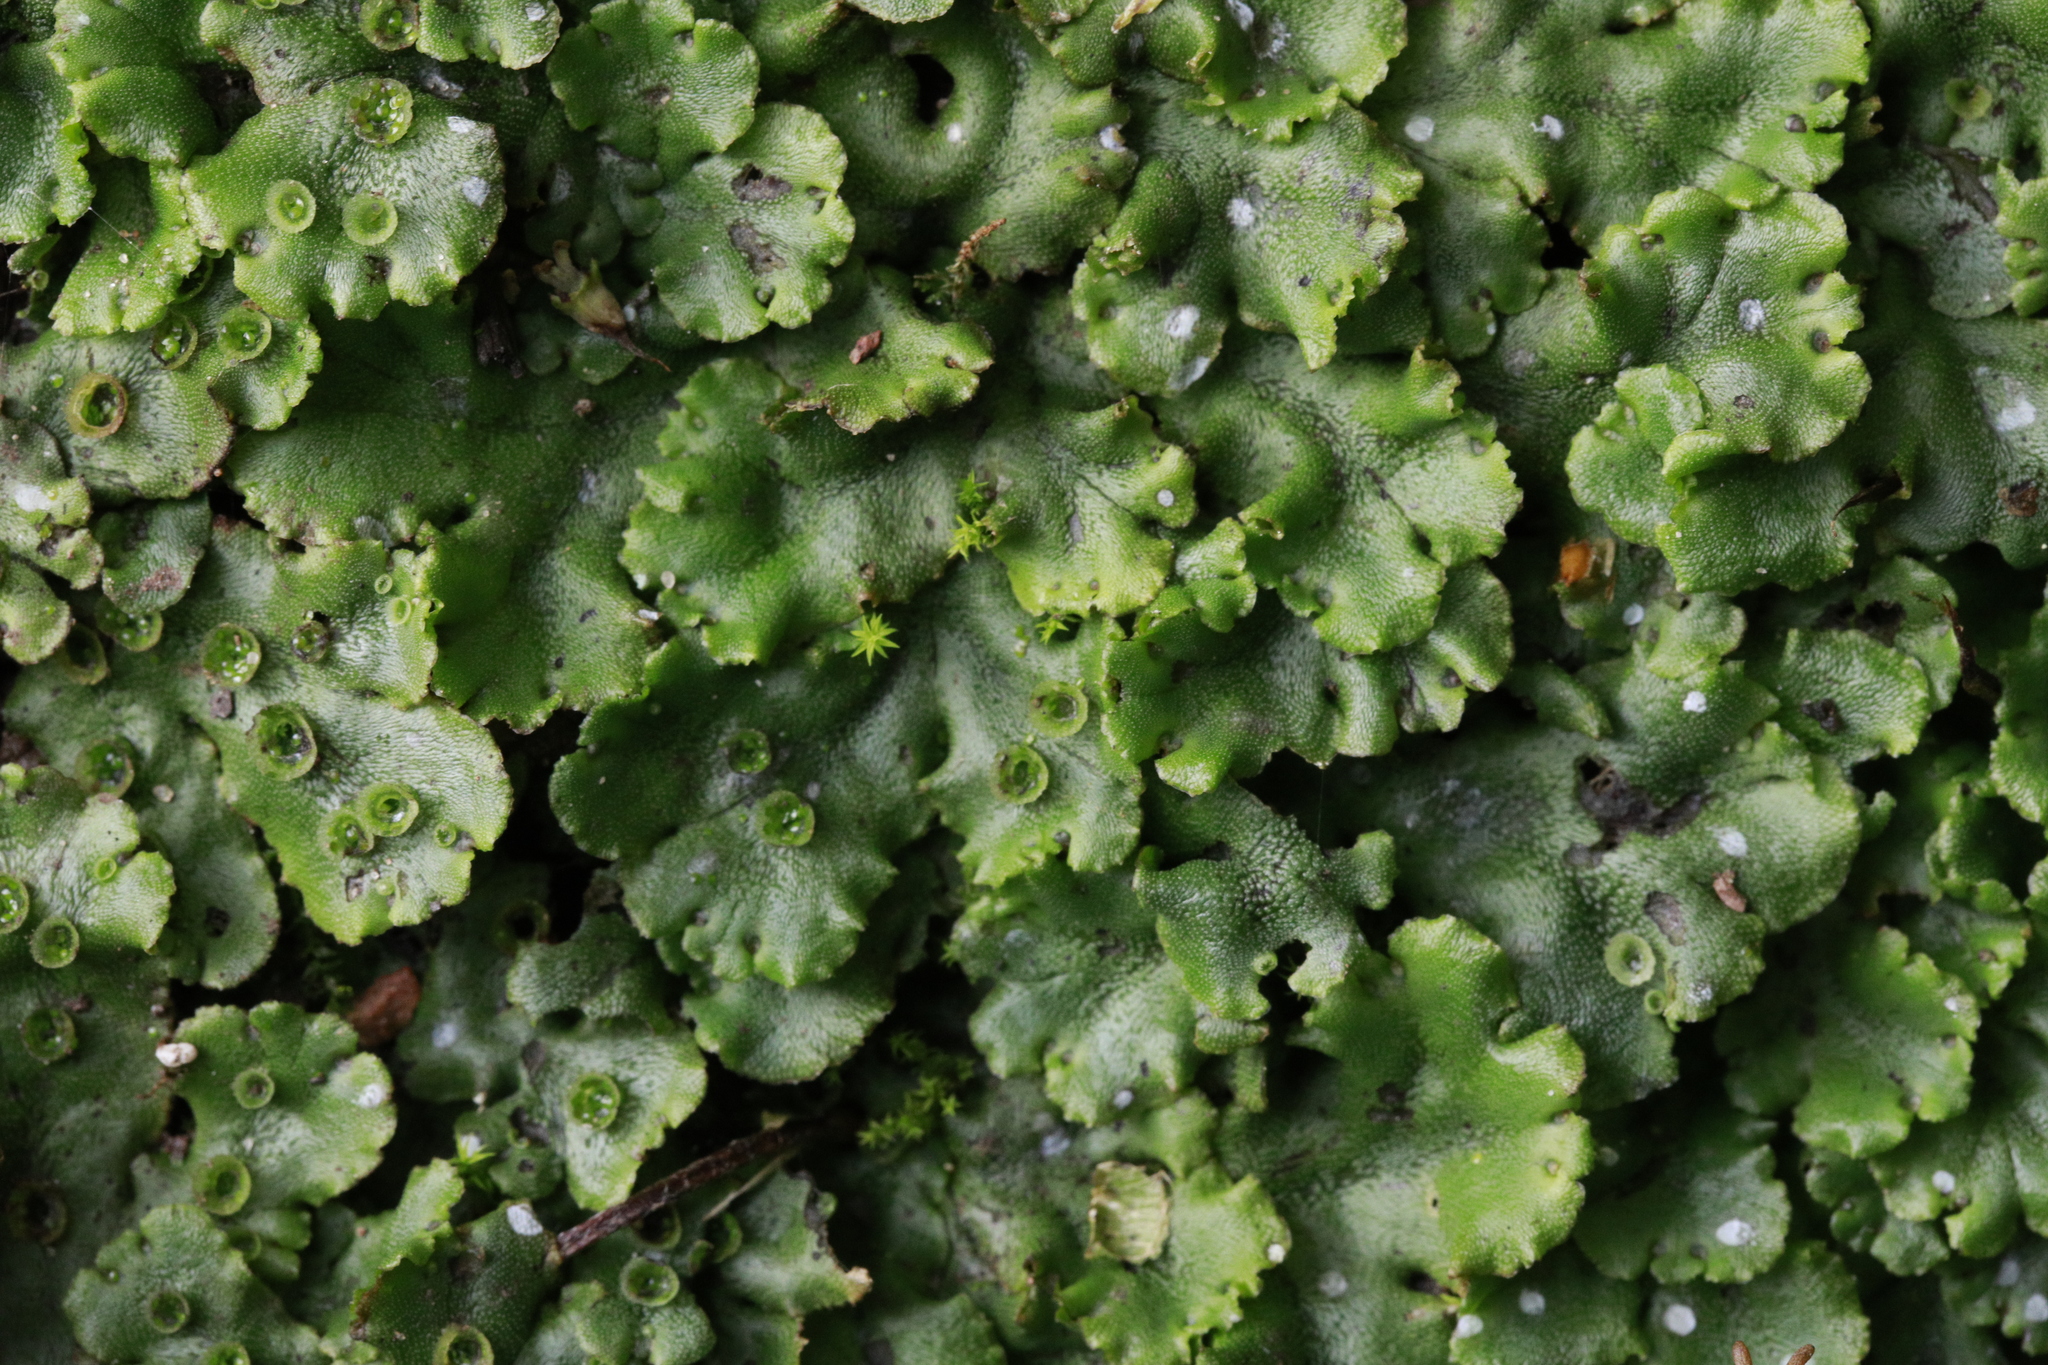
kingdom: Plantae
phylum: Marchantiophyta
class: Marchantiopsida
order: Marchantiales
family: Marchantiaceae
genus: Marchantia
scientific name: Marchantia polymorpha
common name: Common liverwort
